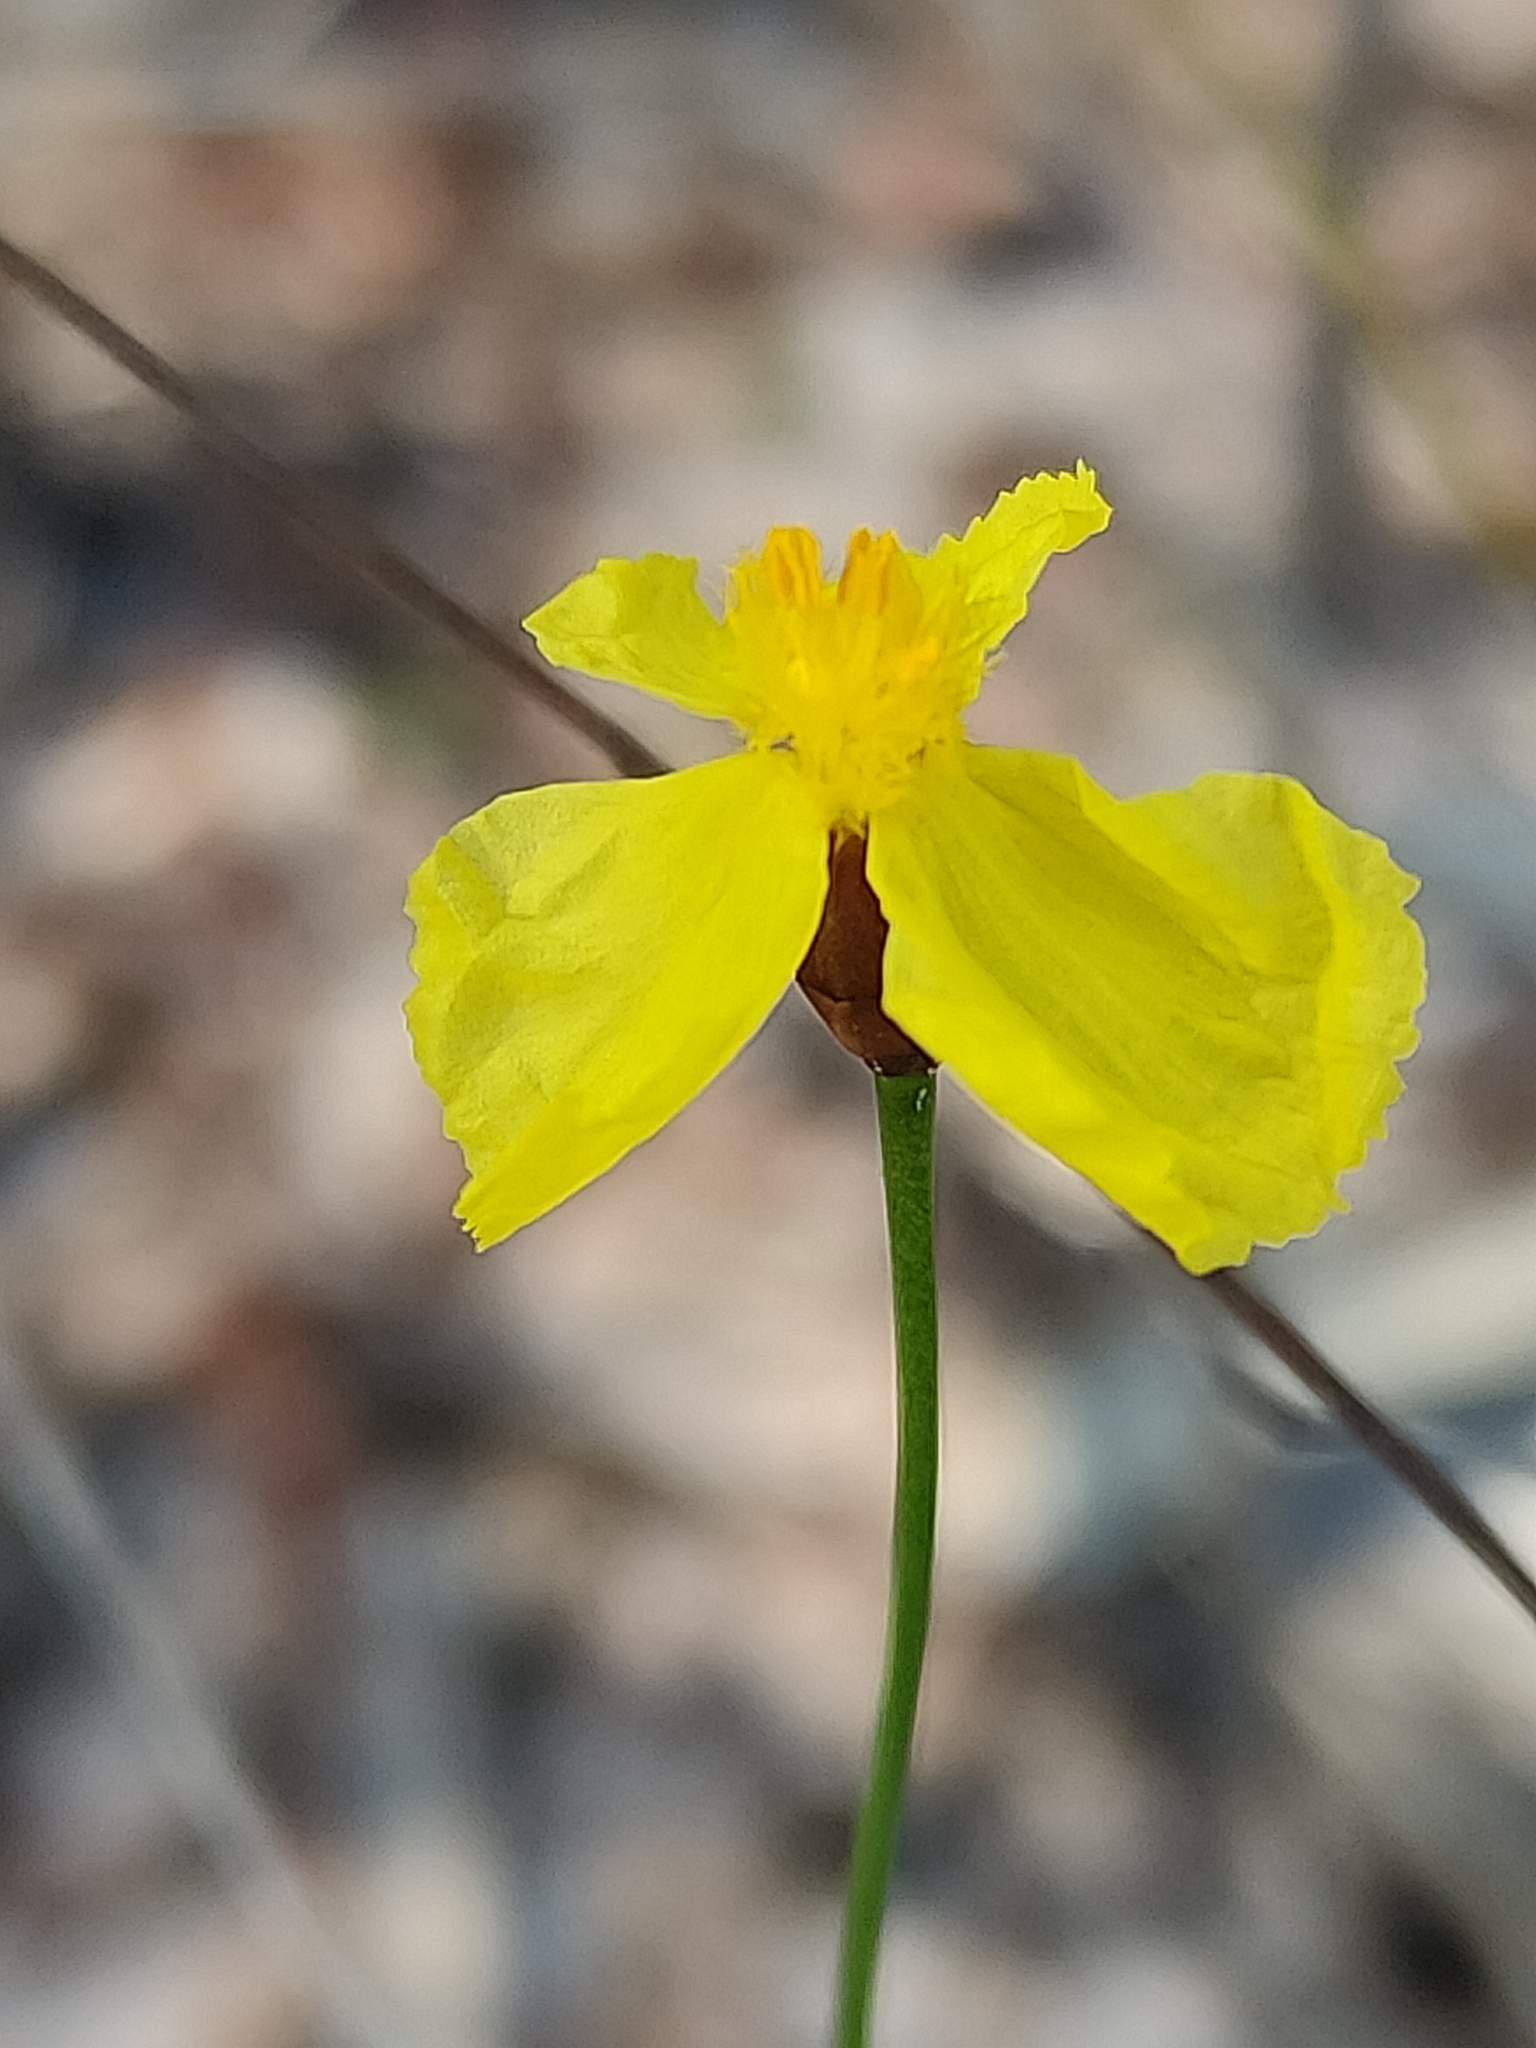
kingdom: Plantae
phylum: Tracheophyta
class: Liliopsida
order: Poales
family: Xyridaceae
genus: Xyris
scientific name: Xyris juncea
